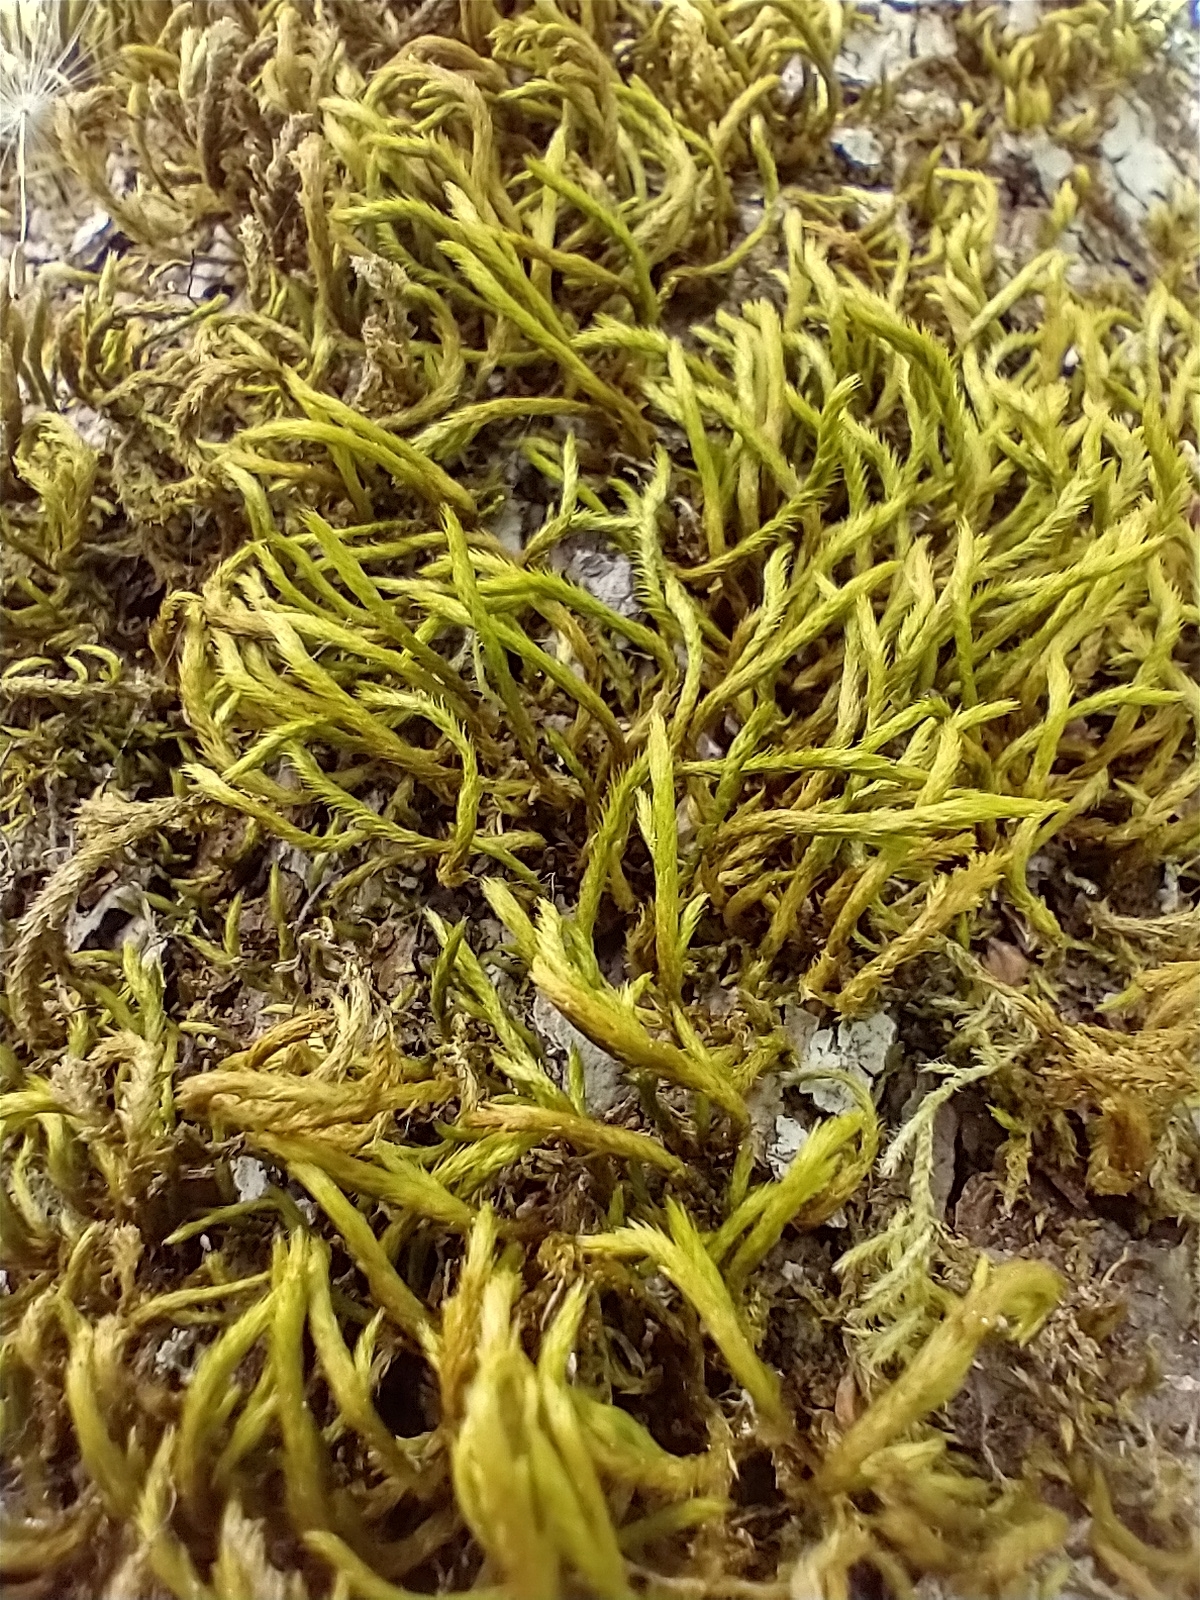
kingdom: Plantae
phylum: Bryophyta
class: Bryopsida
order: Hypnales
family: Leucodontaceae
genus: Leucodon
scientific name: Leucodon sciuroides
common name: Squirrel-tail moss
